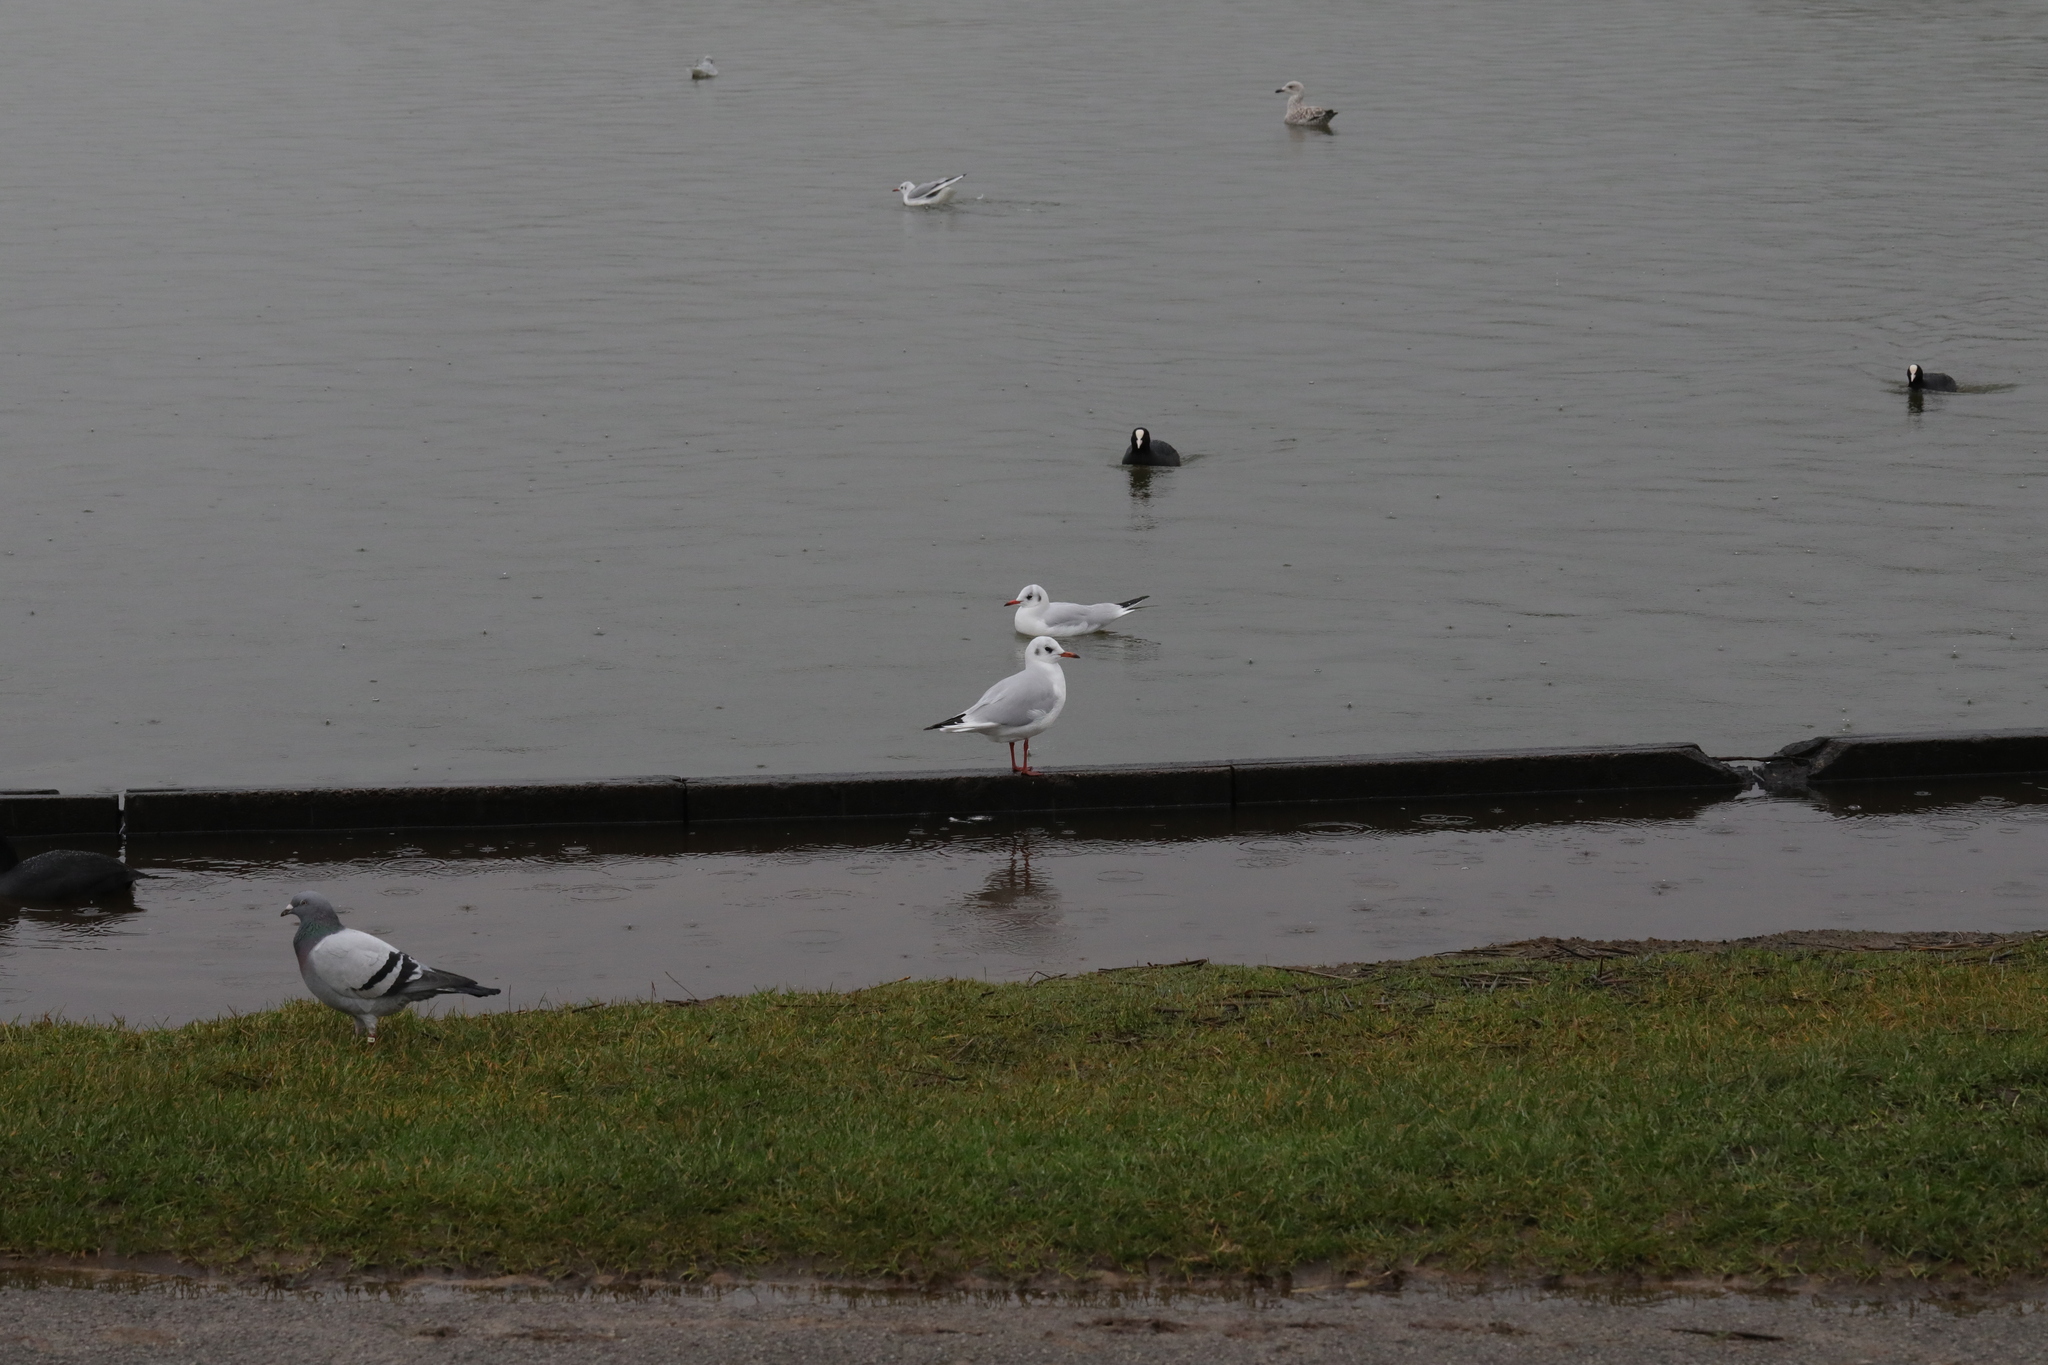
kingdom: Animalia
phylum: Chordata
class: Aves
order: Charadriiformes
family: Laridae
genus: Chroicocephalus
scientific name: Chroicocephalus ridibundus
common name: Black-headed gull
